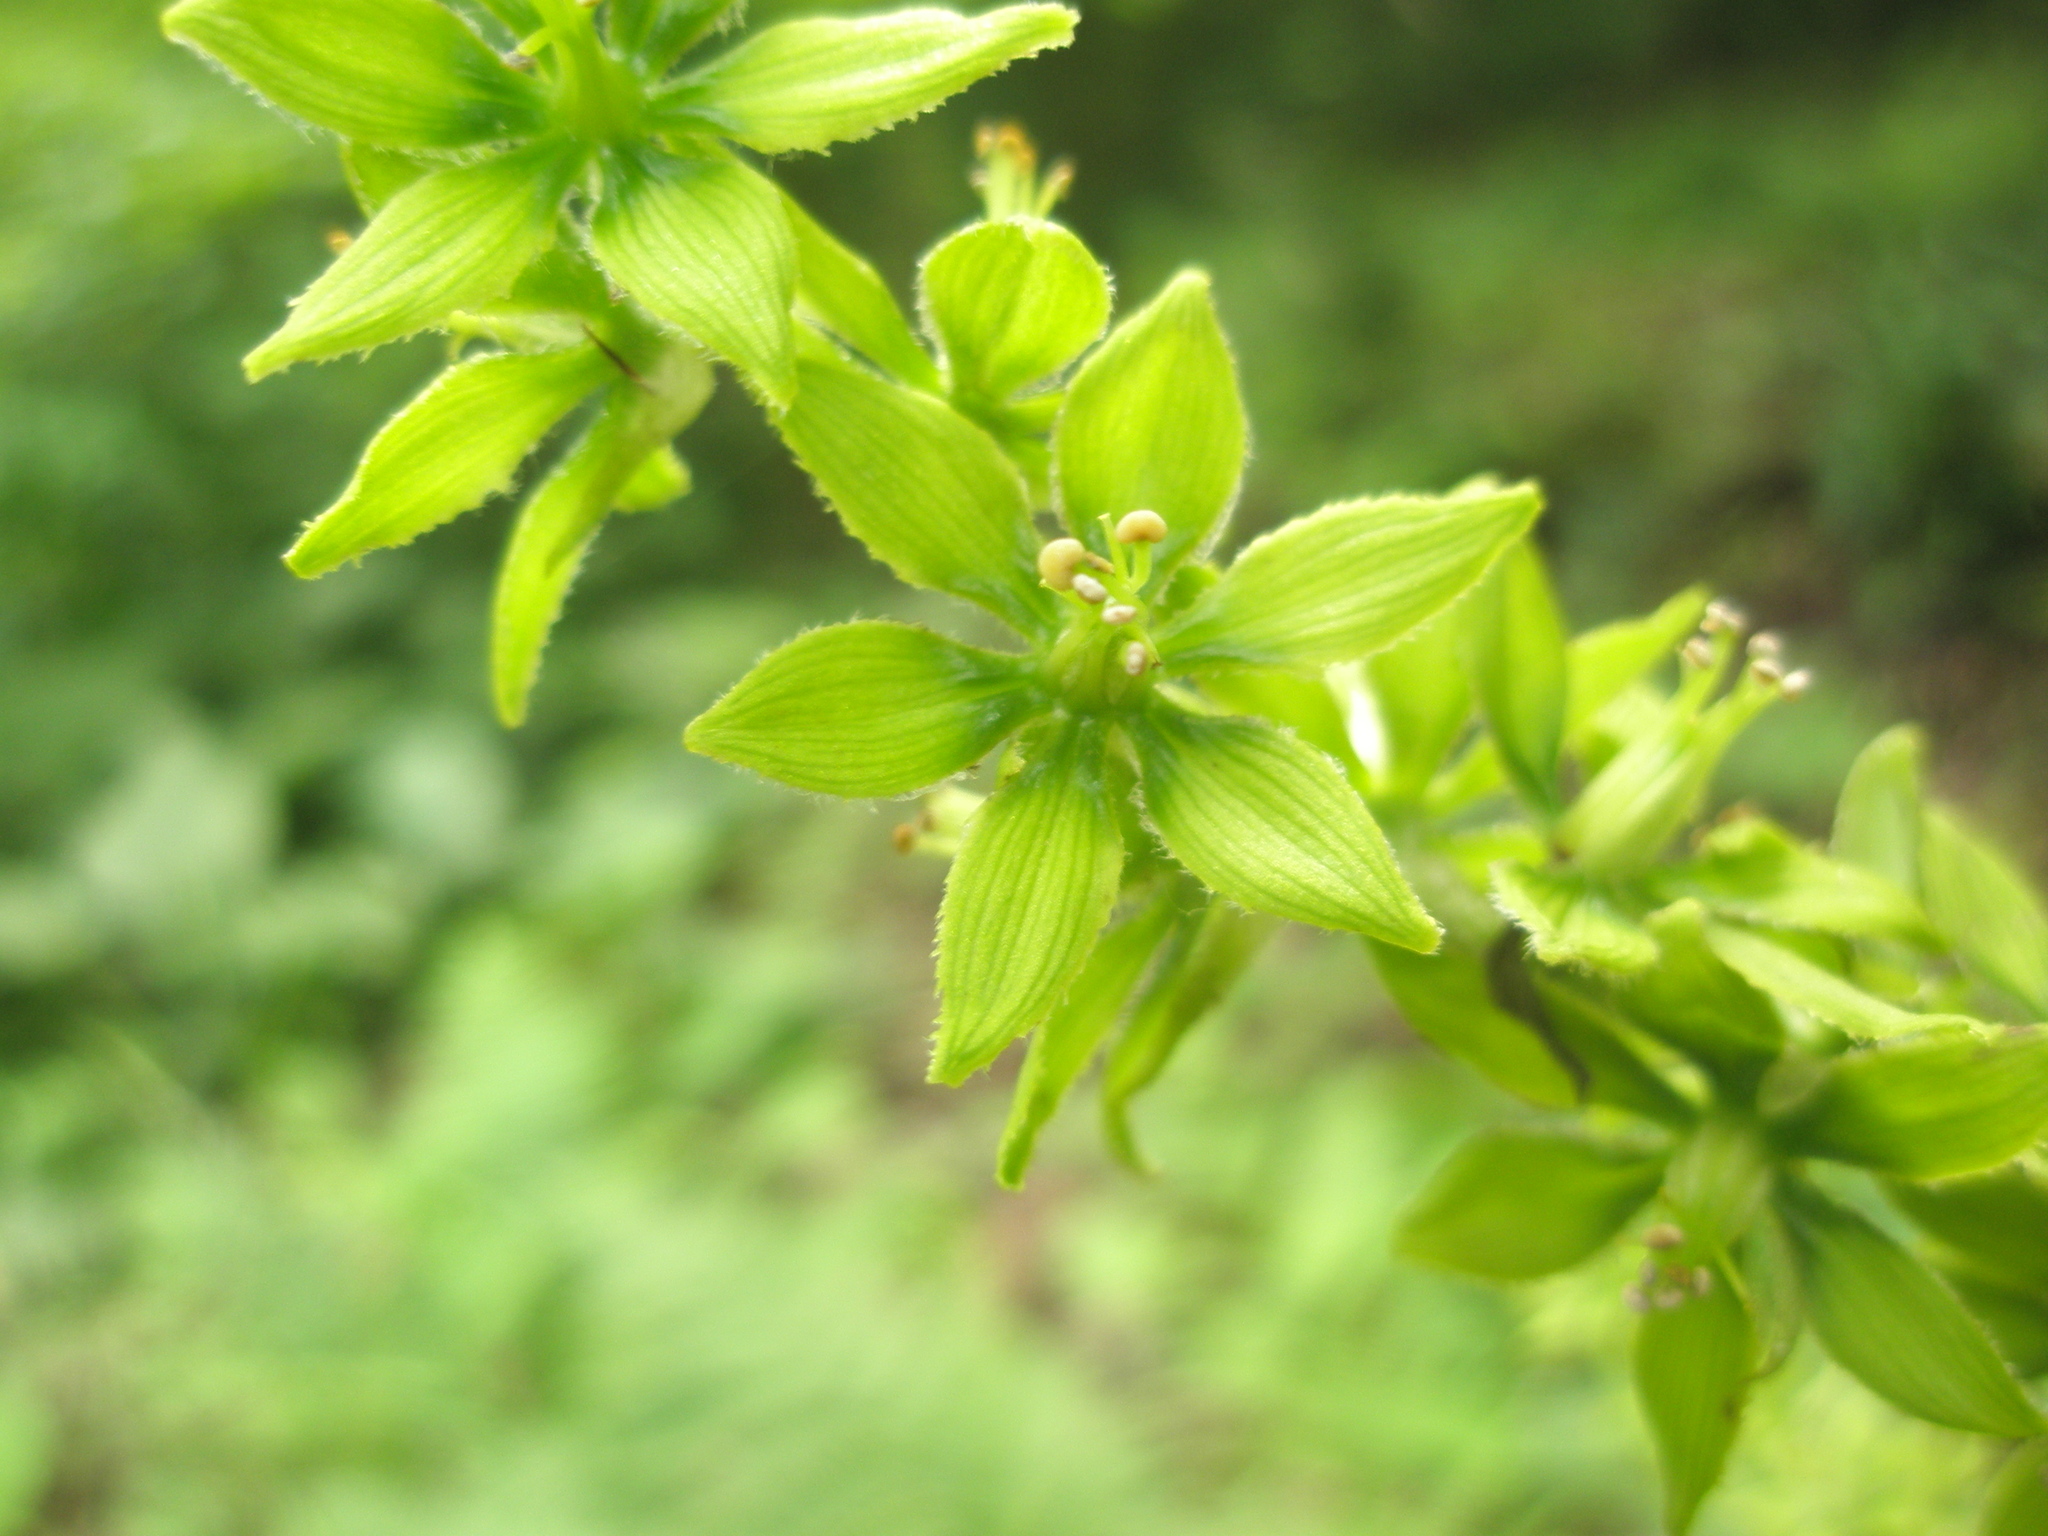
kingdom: Plantae
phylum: Tracheophyta
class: Liliopsida
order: Liliales
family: Melanthiaceae
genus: Veratrum
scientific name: Veratrum viride
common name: American false hellebore
